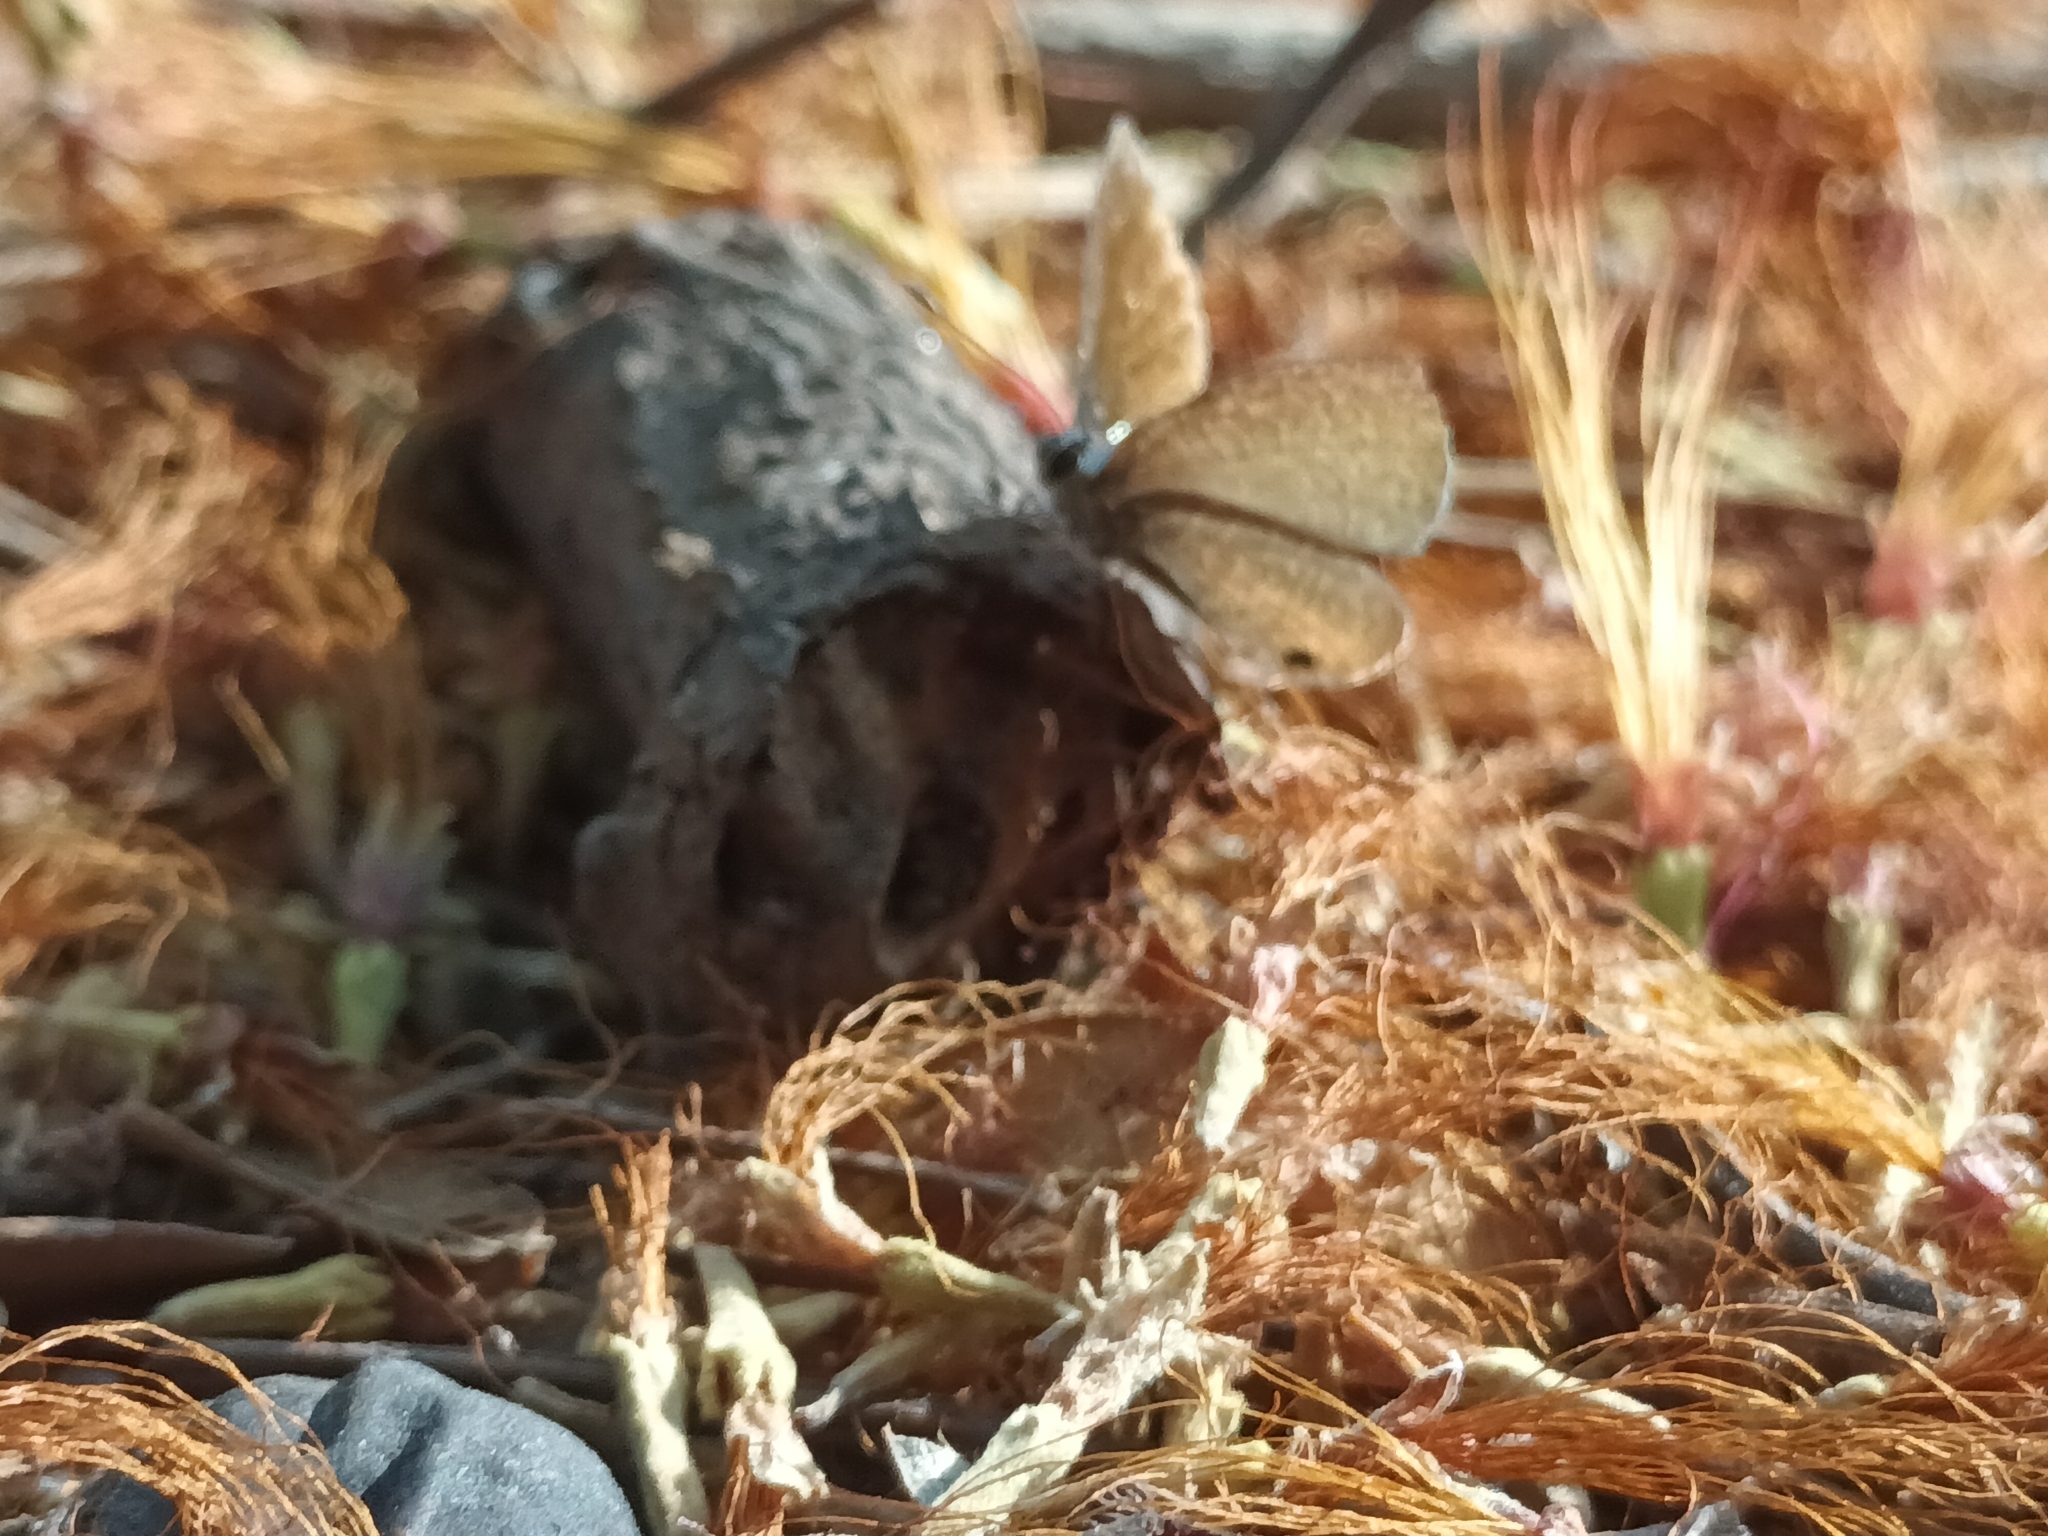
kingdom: Animalia
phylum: Arthropoda
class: Insecta
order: Lepidoptera
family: Lycaenidae
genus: Prosotas
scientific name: Prosotas dubiosa
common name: Tailless lineblue
